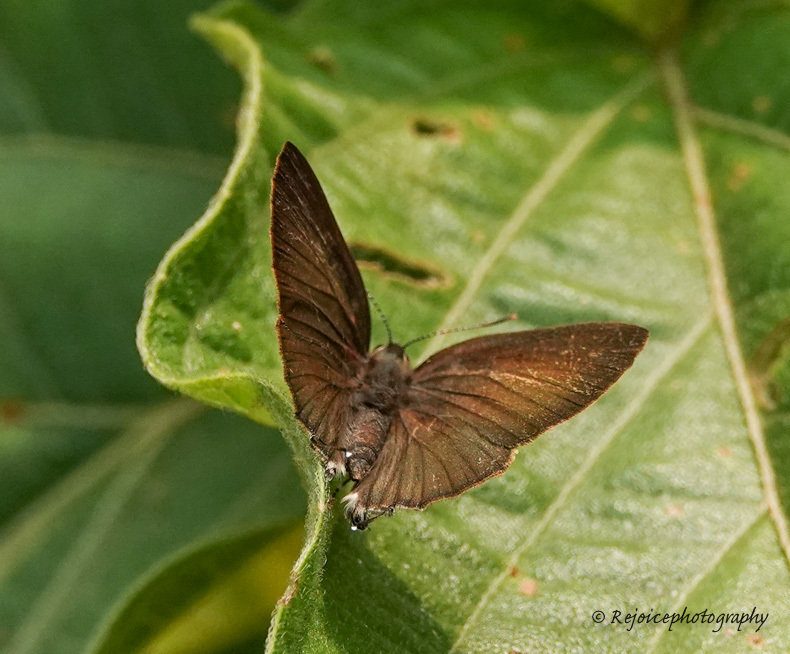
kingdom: Animalia
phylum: Arthropoda
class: Insecta
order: Lepidoptera
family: Lycaenidae
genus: Rapala
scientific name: Rapala suffusa
